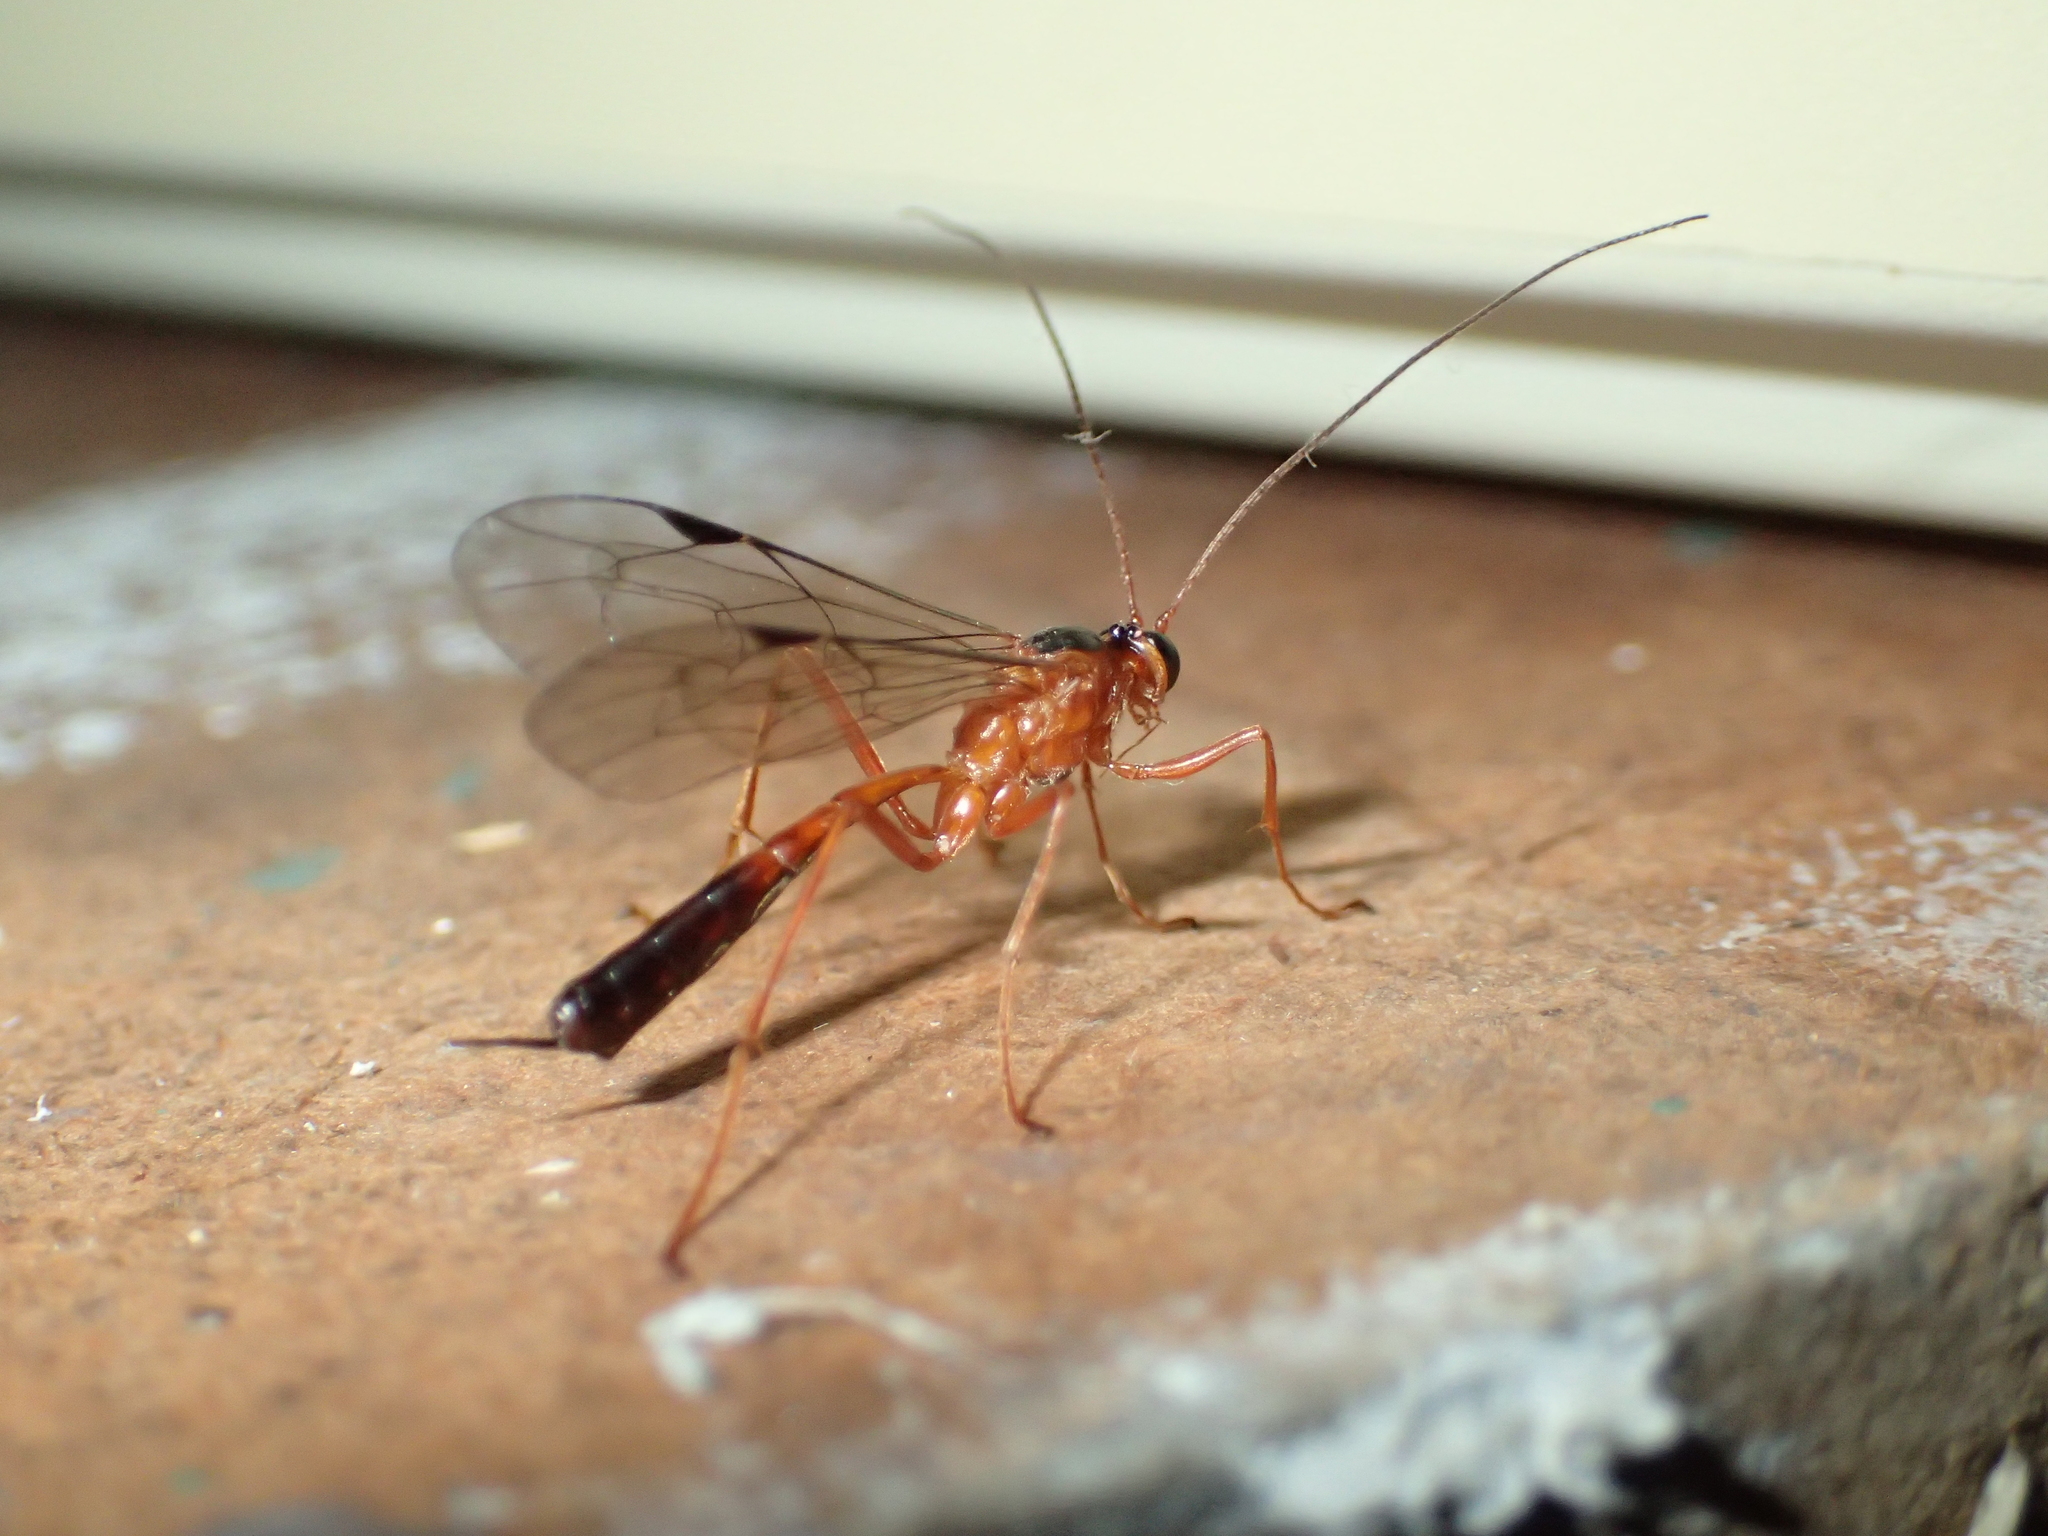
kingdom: Animalia
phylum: Arthropoda
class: Insecta
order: Hymenoptera
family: Ichneumonidae
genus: Netelia
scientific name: Netelia ephippiata
